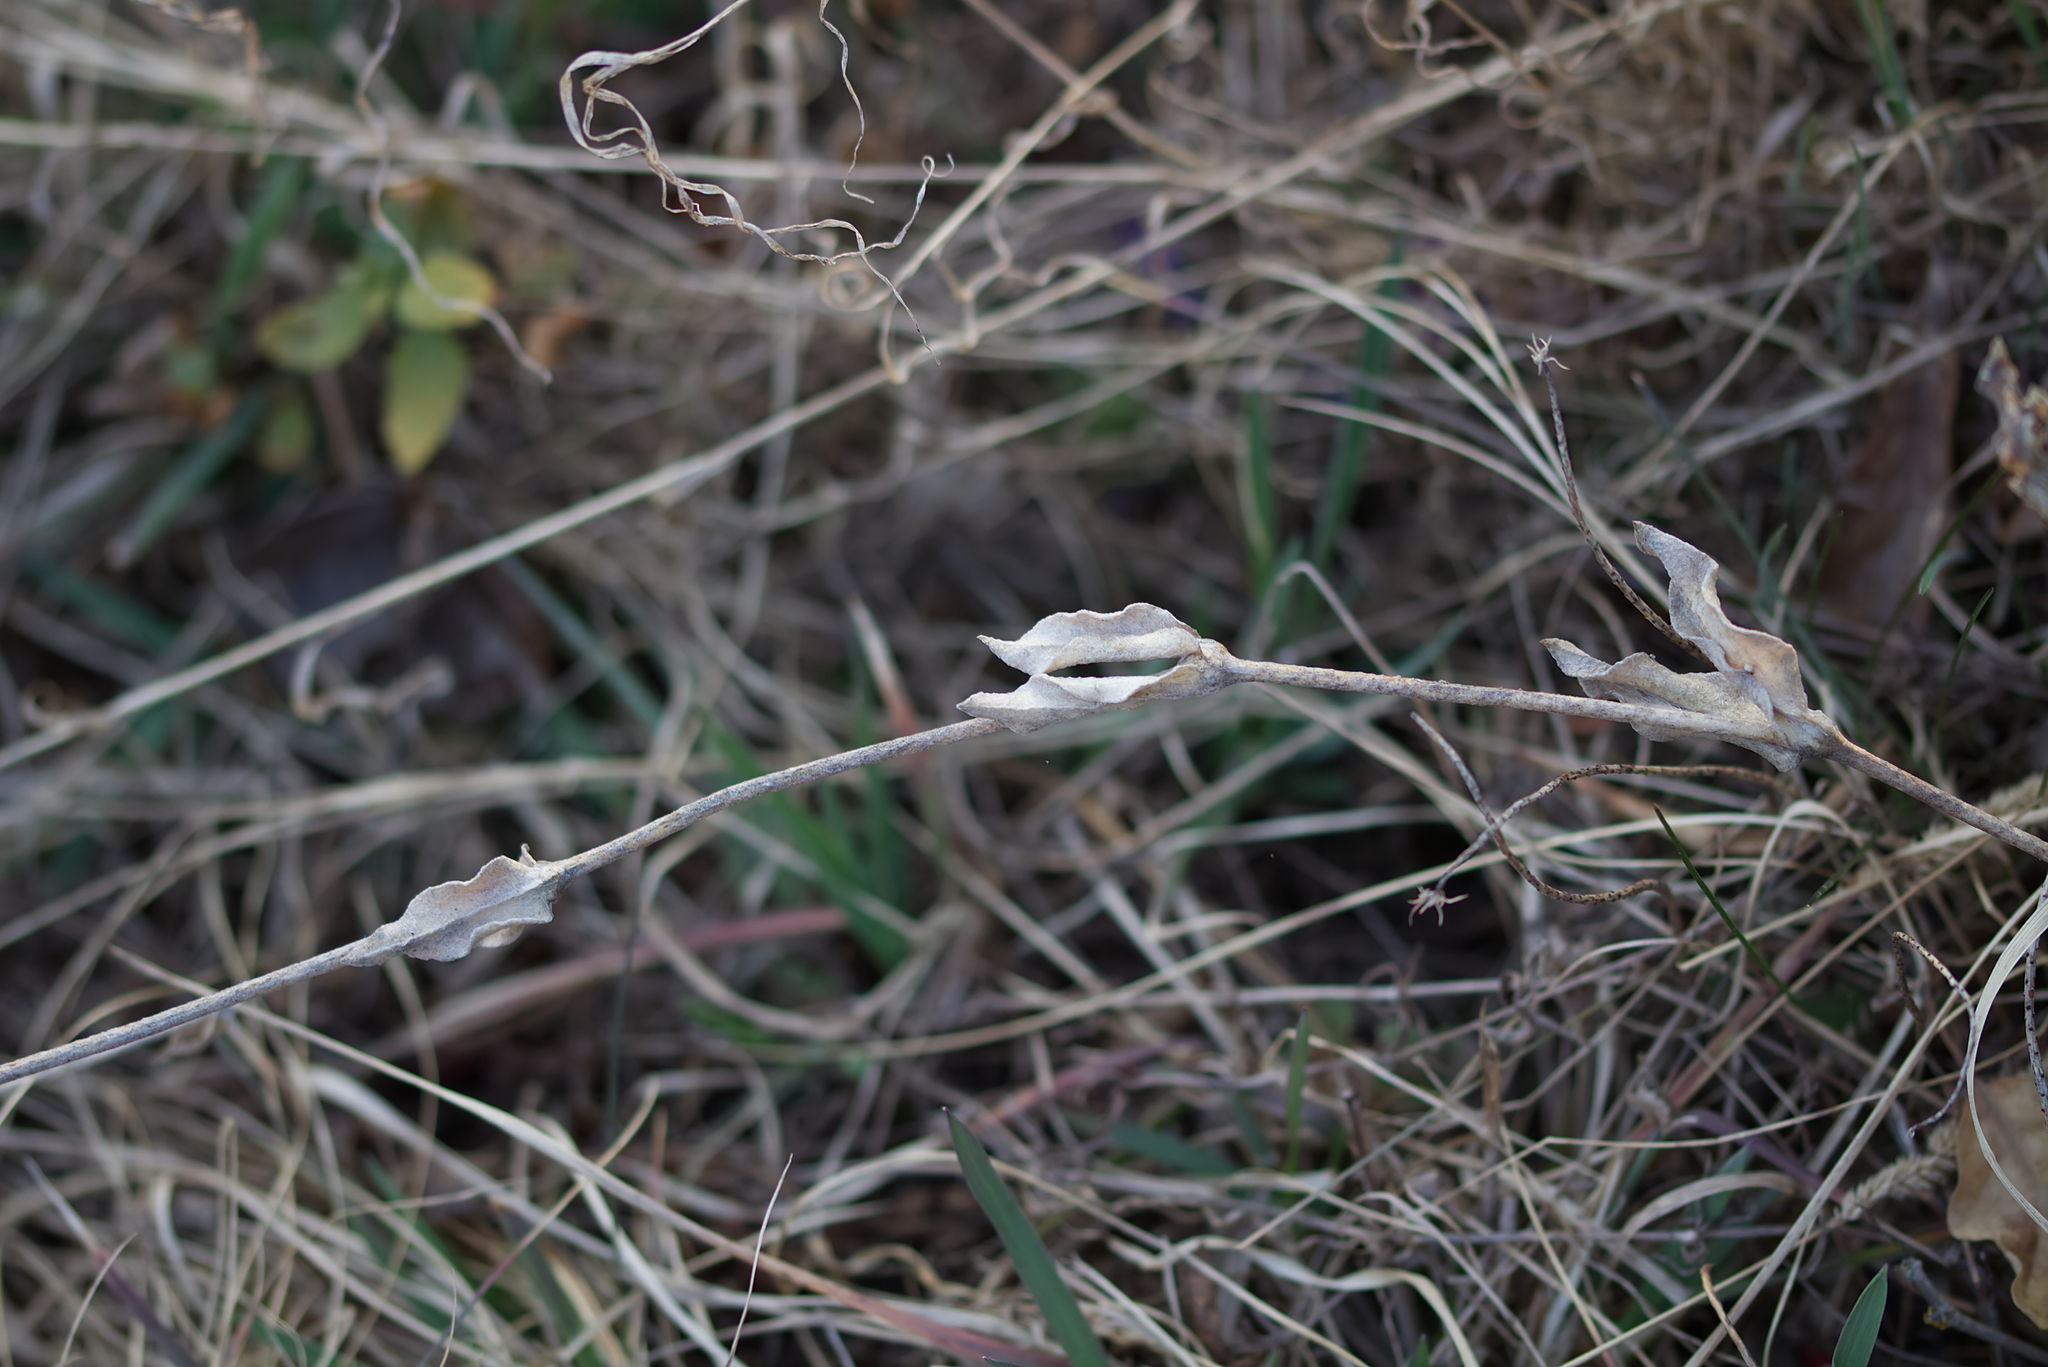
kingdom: Plantae
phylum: Tracheophyta
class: Magnoliopsida
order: Caryophyllales
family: Caryophyllaceae
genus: Silene
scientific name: Silene coronaria
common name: Rose campion
